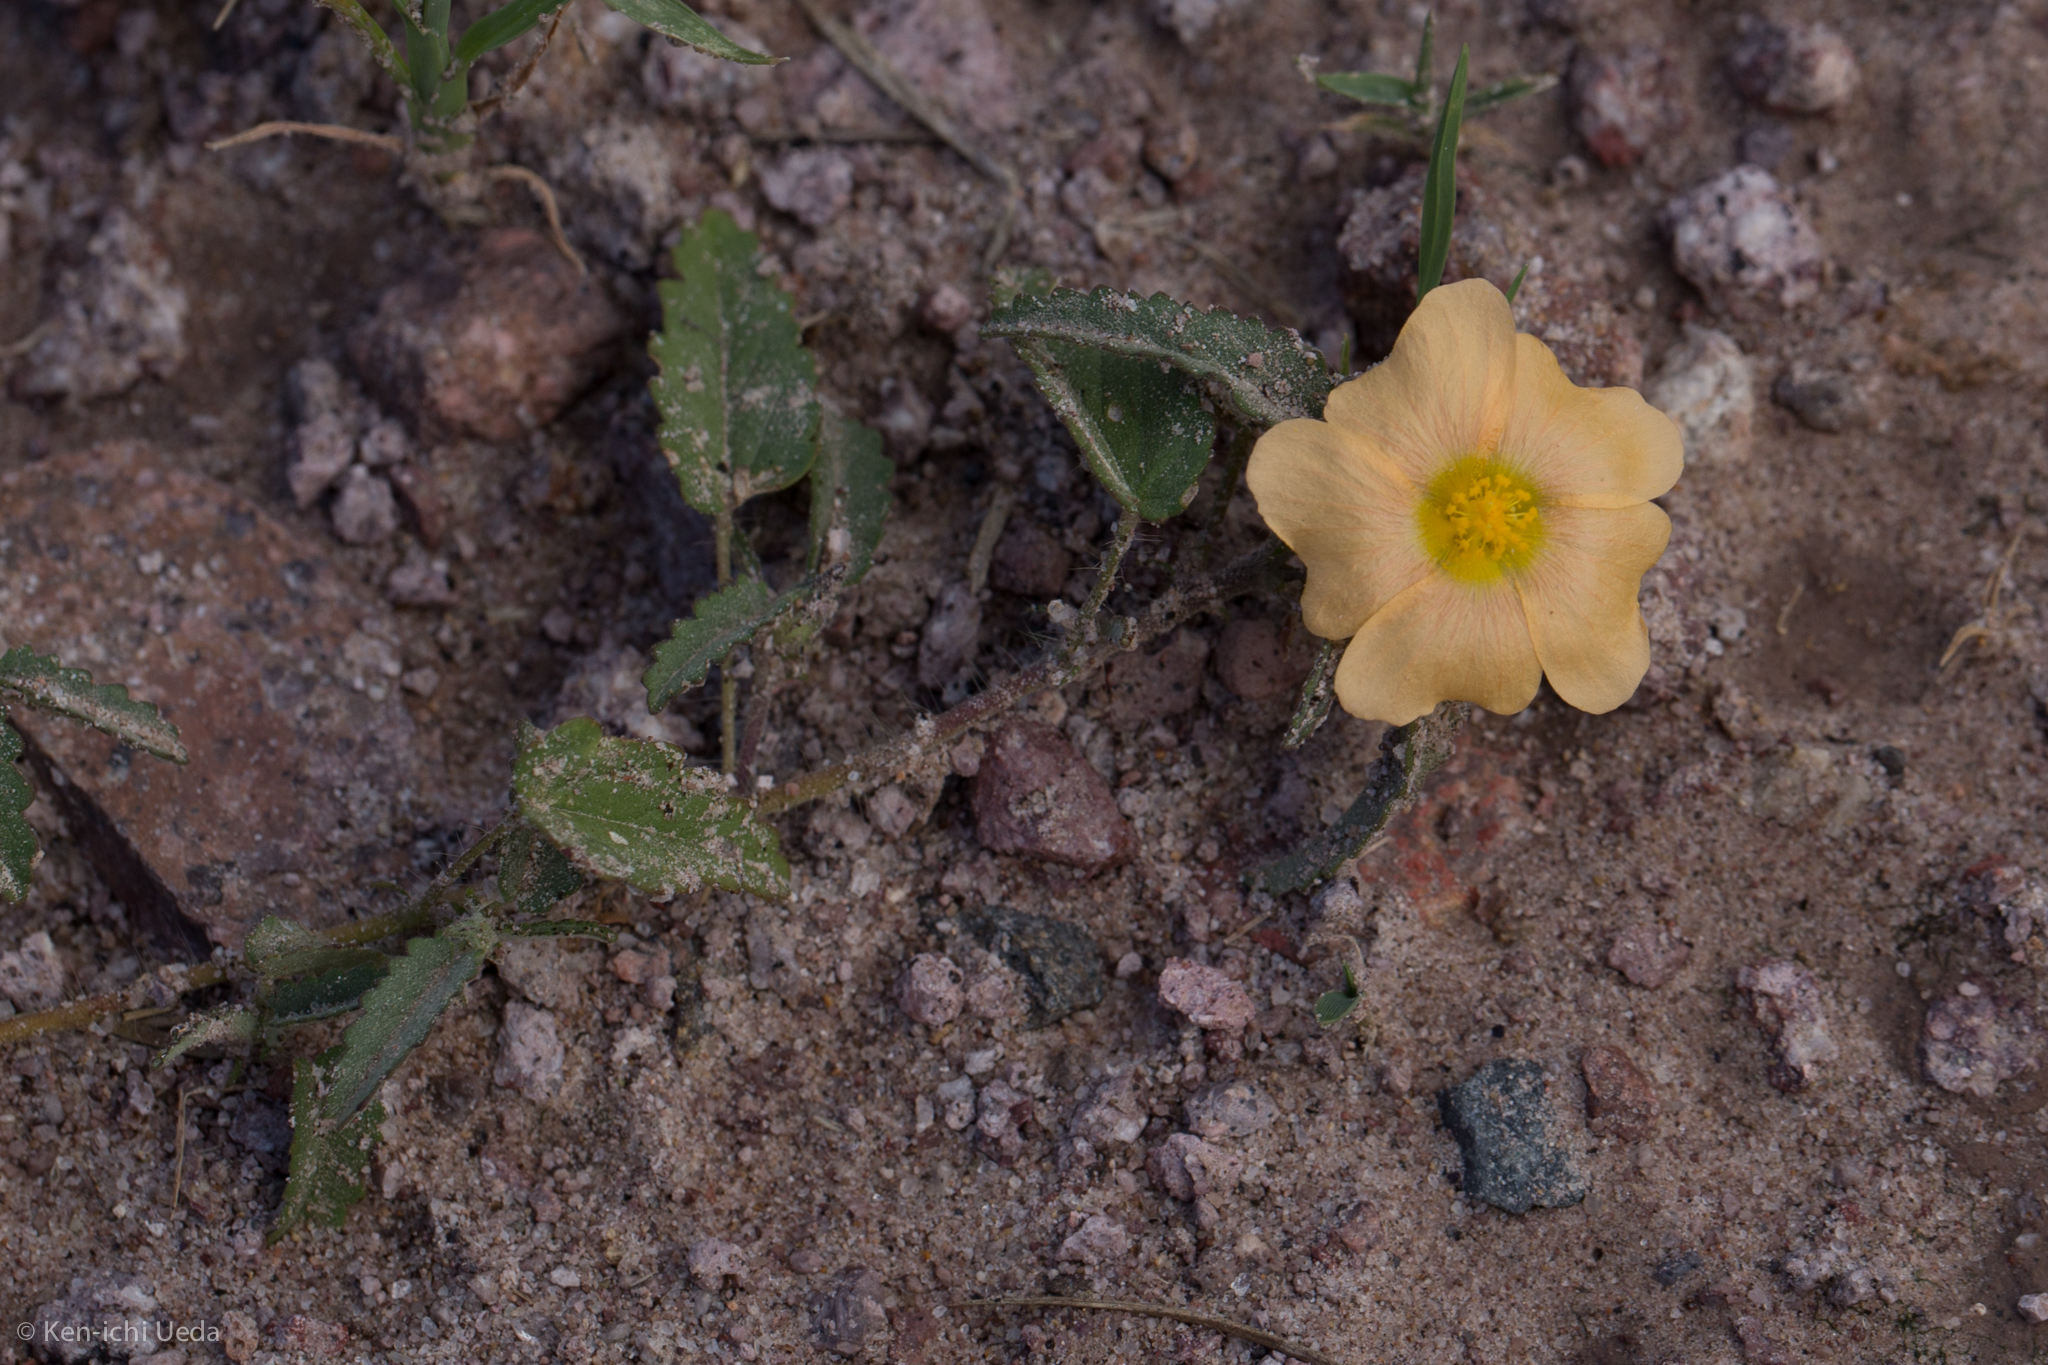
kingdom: Plantae
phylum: Tracheophyta
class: Magnoliopsida
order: Malvales
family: Malvaceae
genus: Sida
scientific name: Sida abutilifolia
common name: Spreading fanpetals
